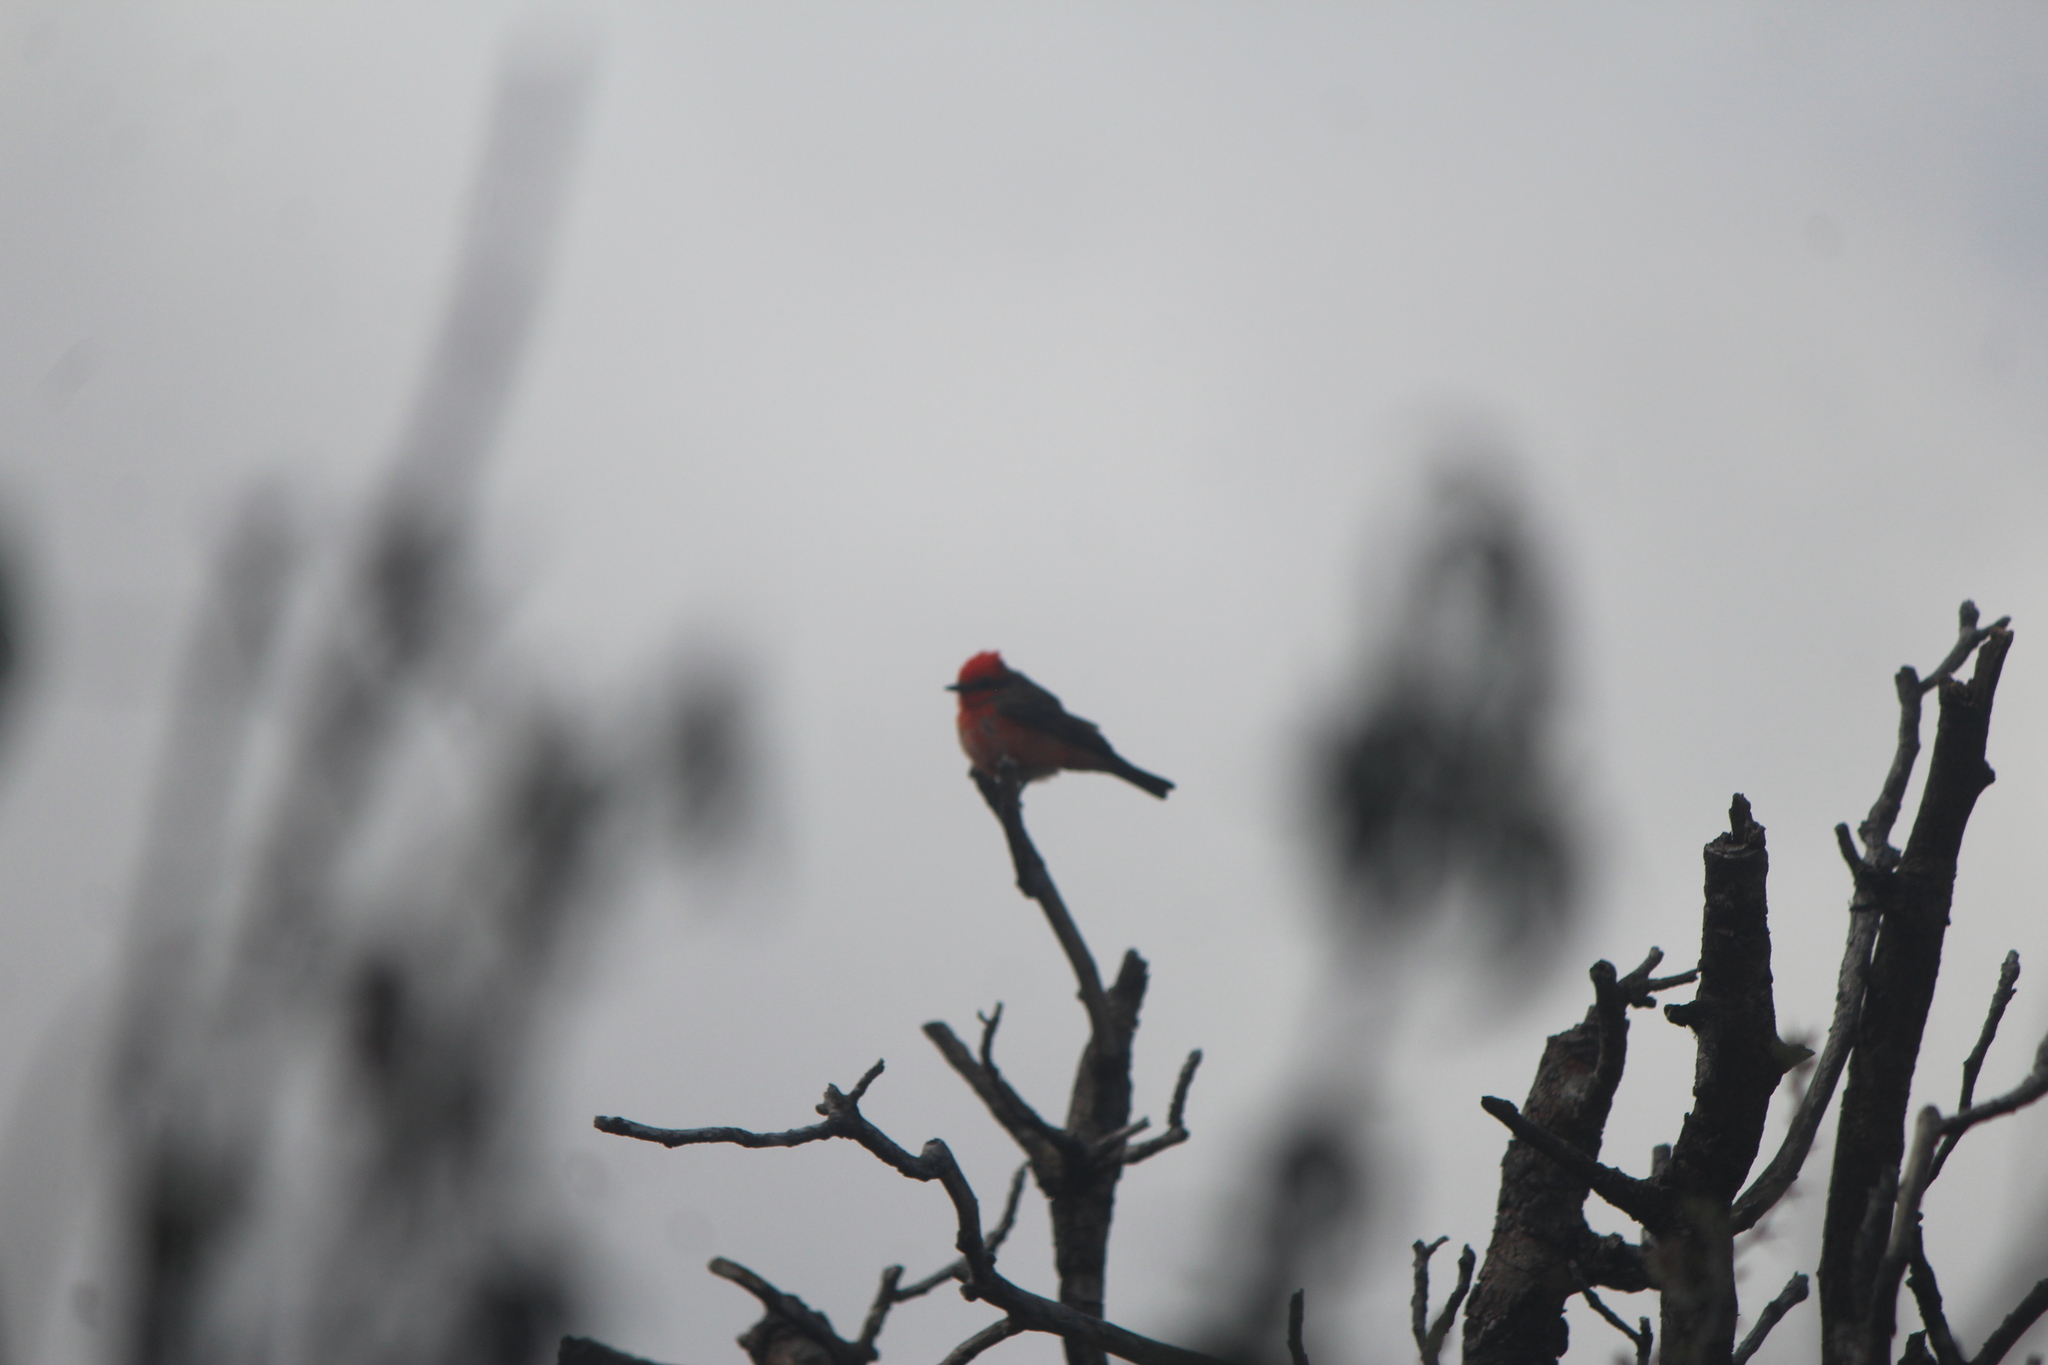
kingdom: Animalia
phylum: Chordata
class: Aves
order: Passeriformes
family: Tyrannidae
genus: Pyrocephalus
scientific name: Pyrocephalus rubinus
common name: Vermilion flycatcher
